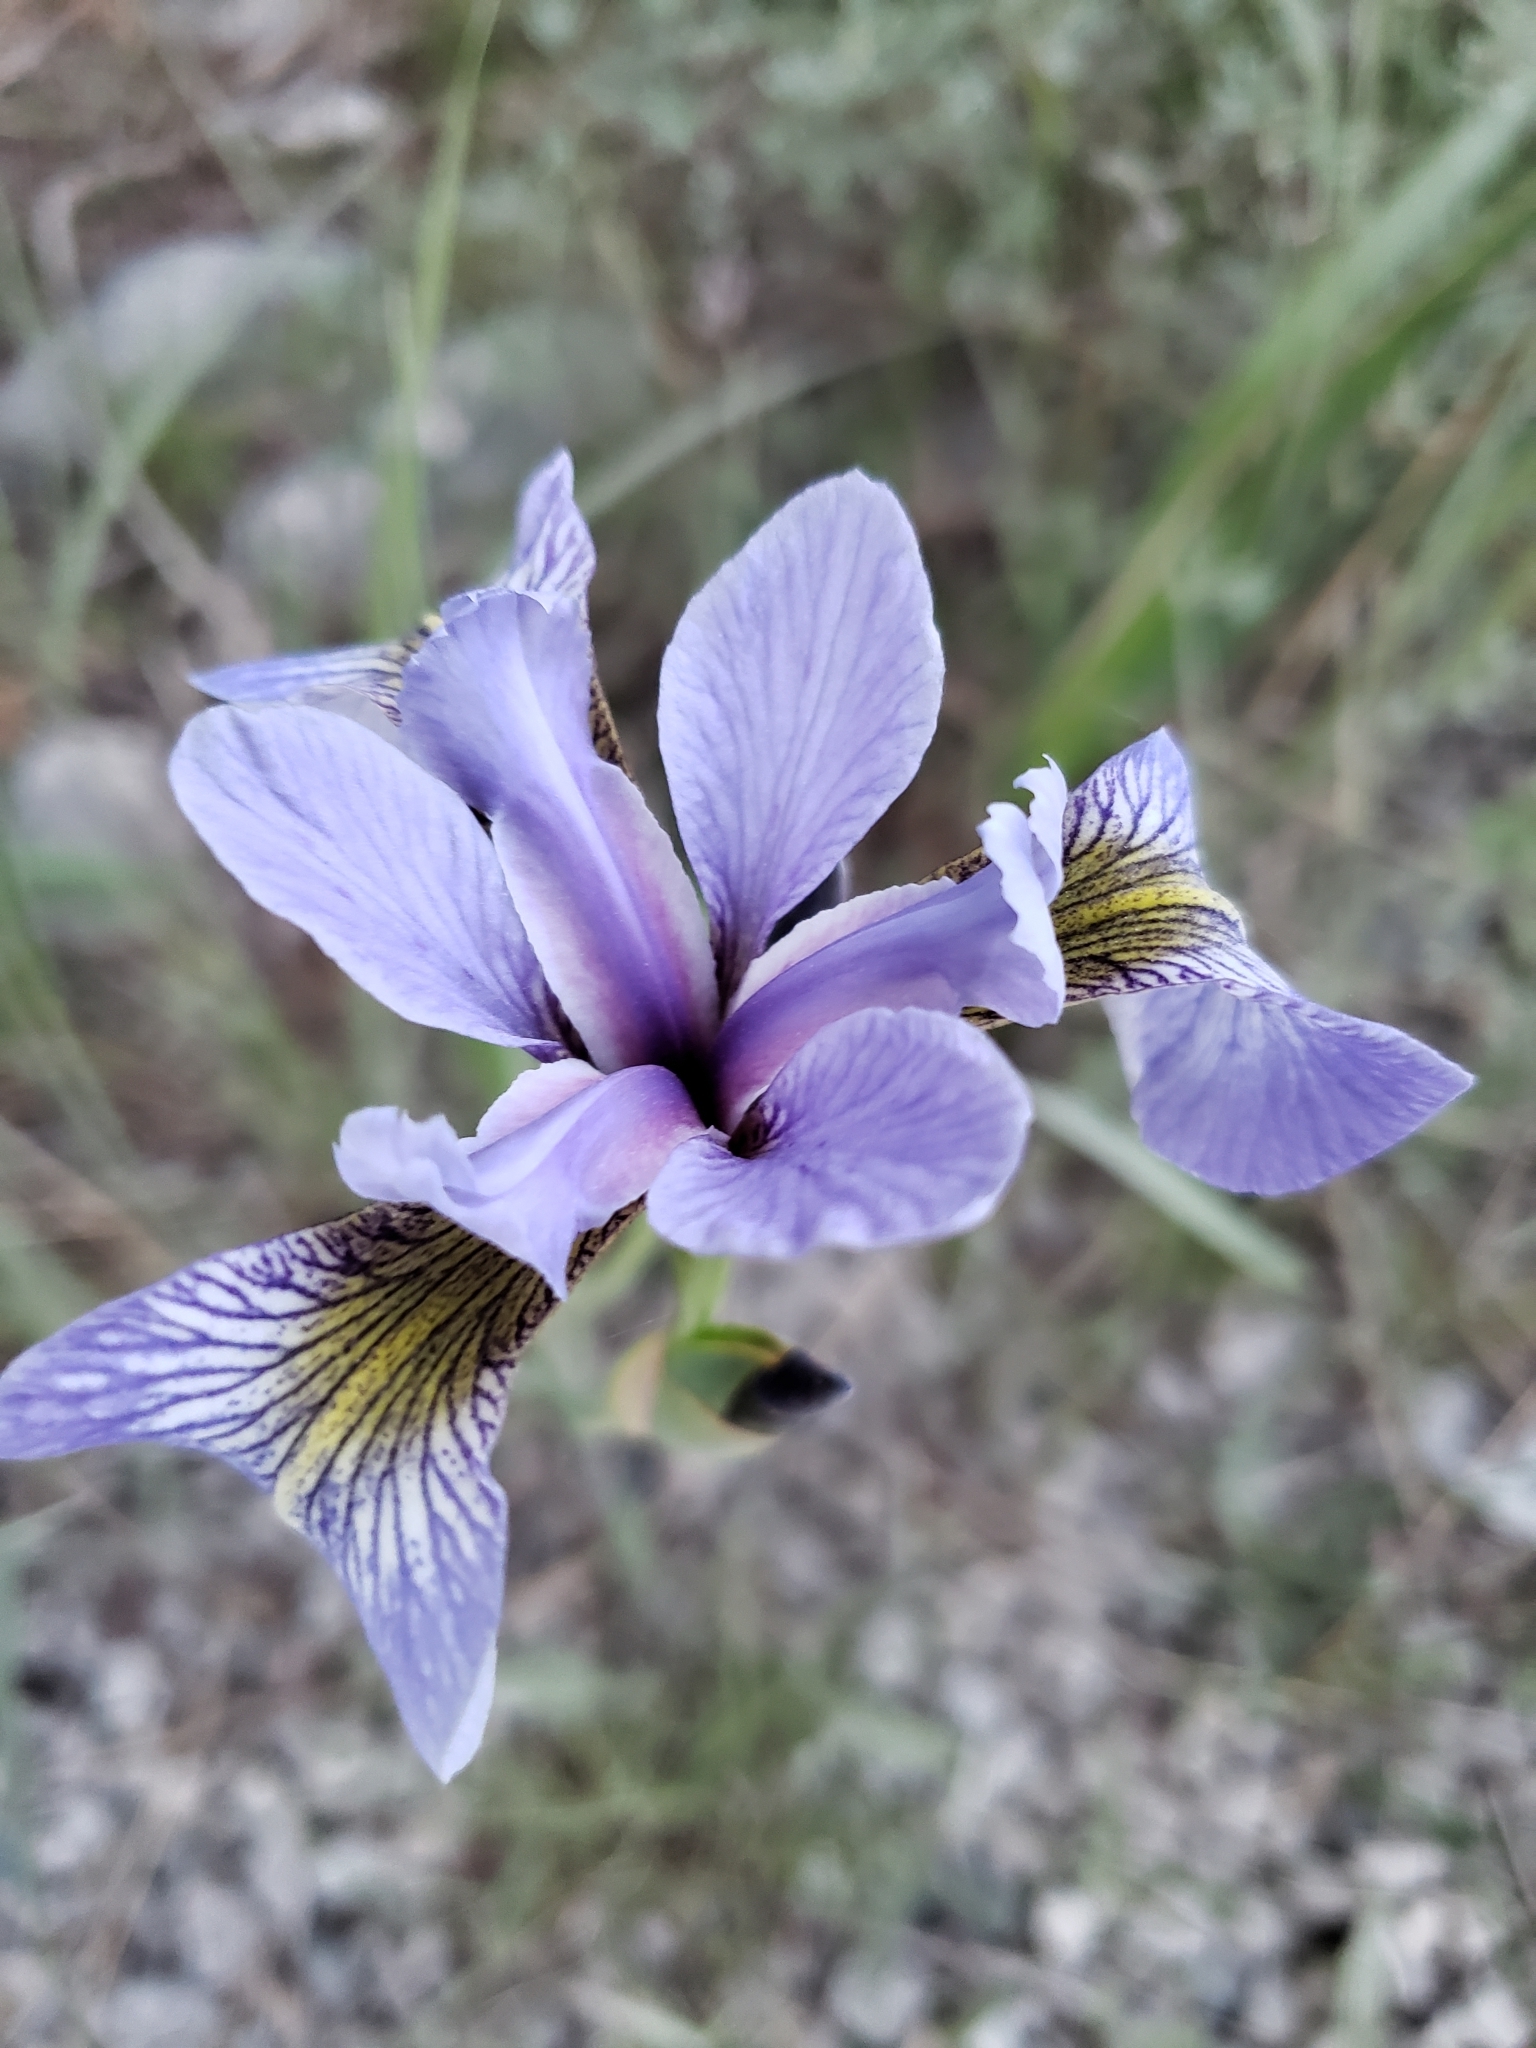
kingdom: Plantae
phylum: Tracheophyta
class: Liliopsida
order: Asparagales
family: Iridaceae
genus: Iris
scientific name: Iris versicolor
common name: Purple iris
